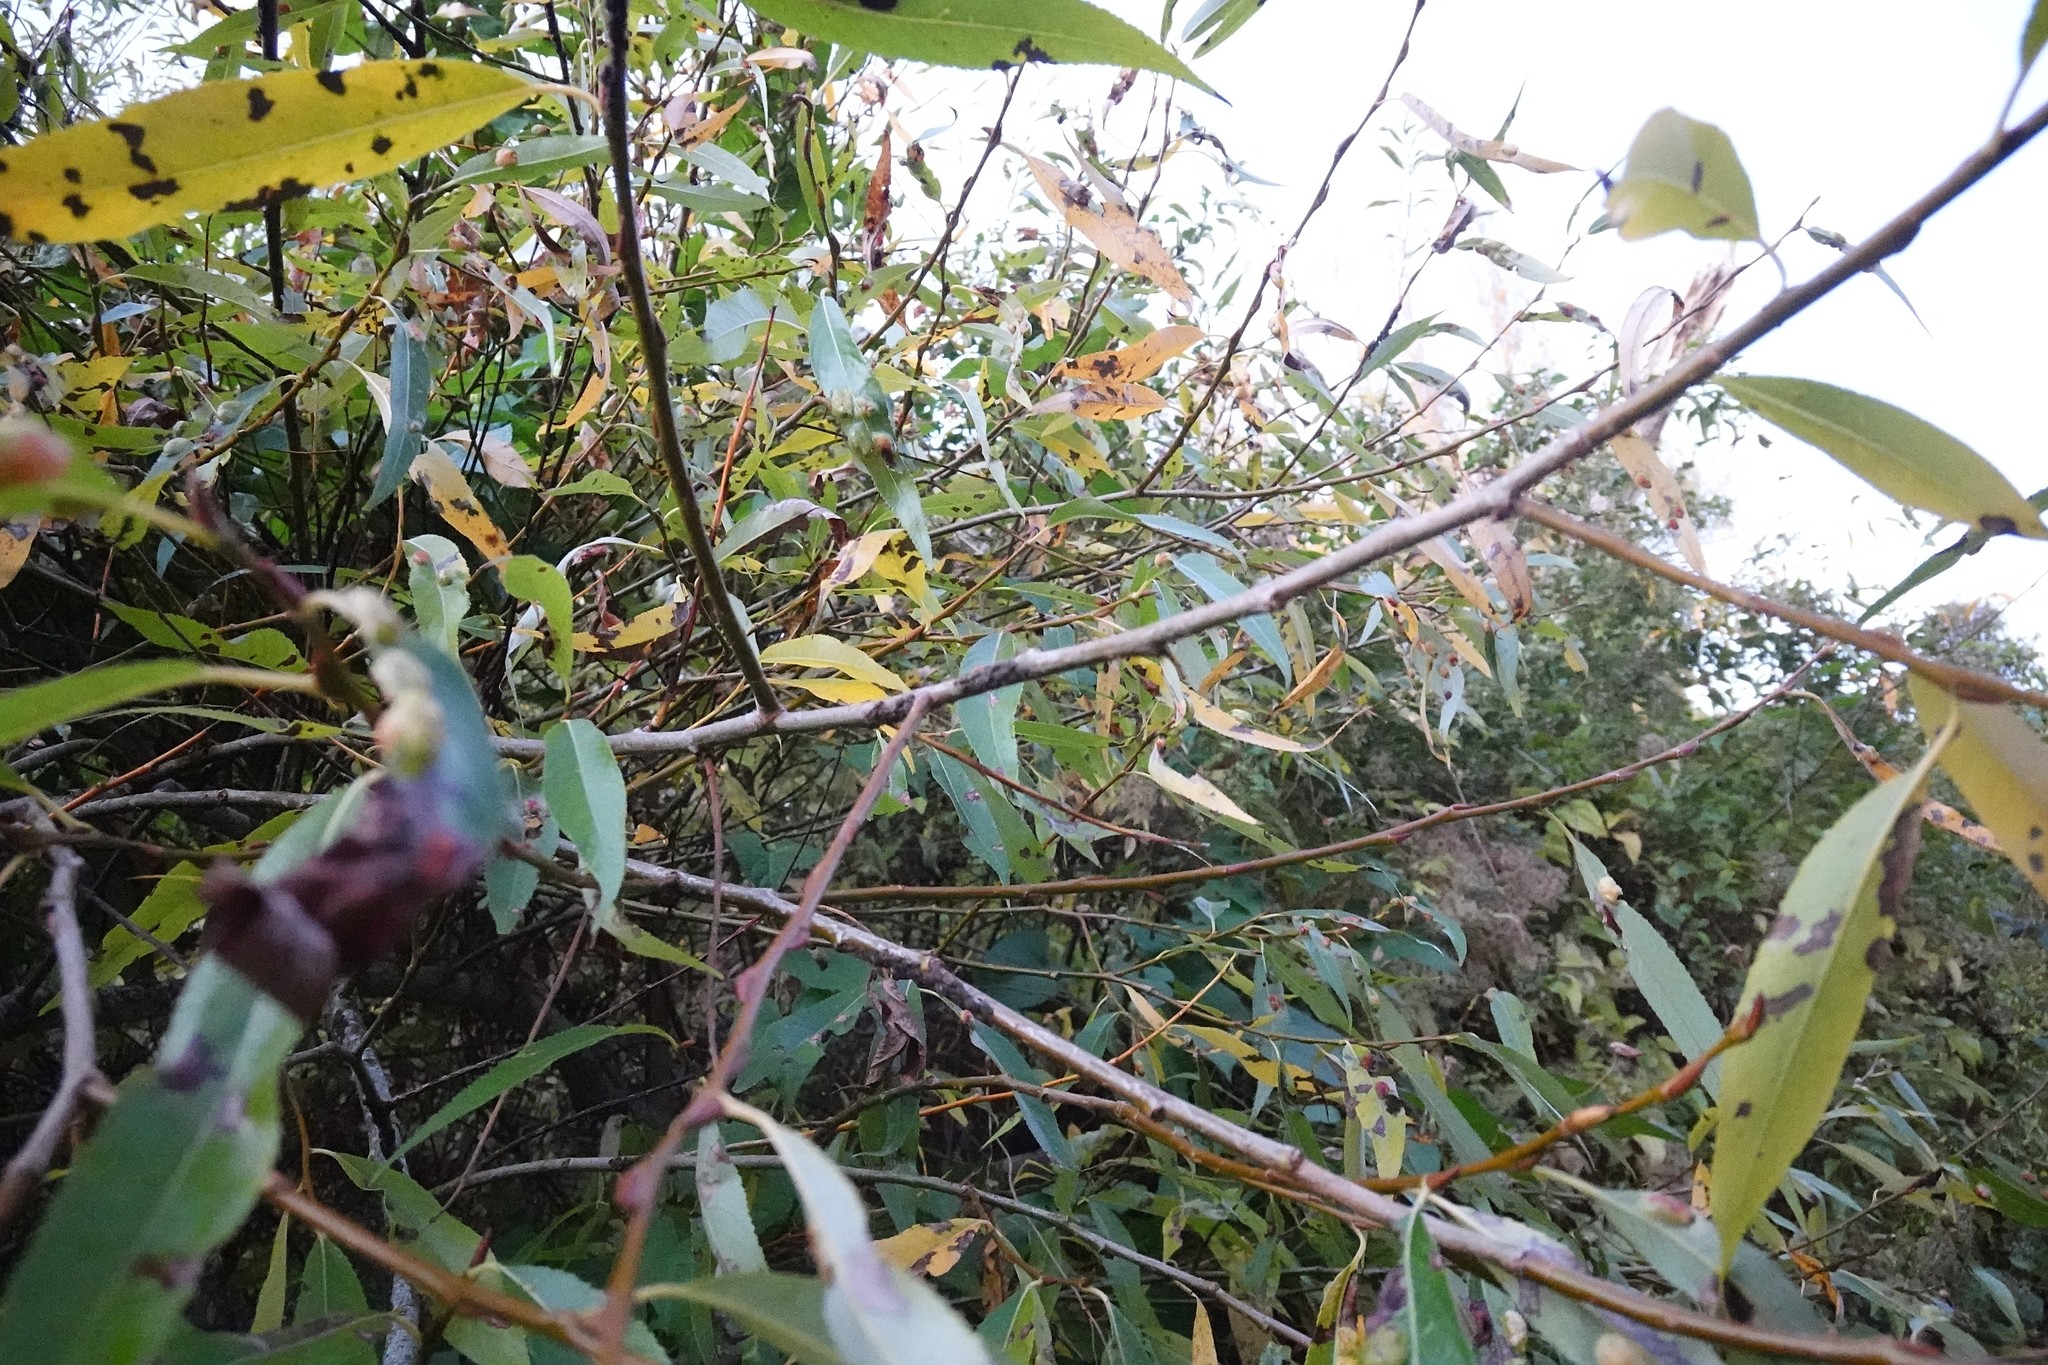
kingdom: Animalia
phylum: Arthropoda
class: Insecta
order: Hemiptera
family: Aphididae
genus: Tuberolachnus
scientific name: Tuberolachnus salignus
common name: Giant willow aphid
